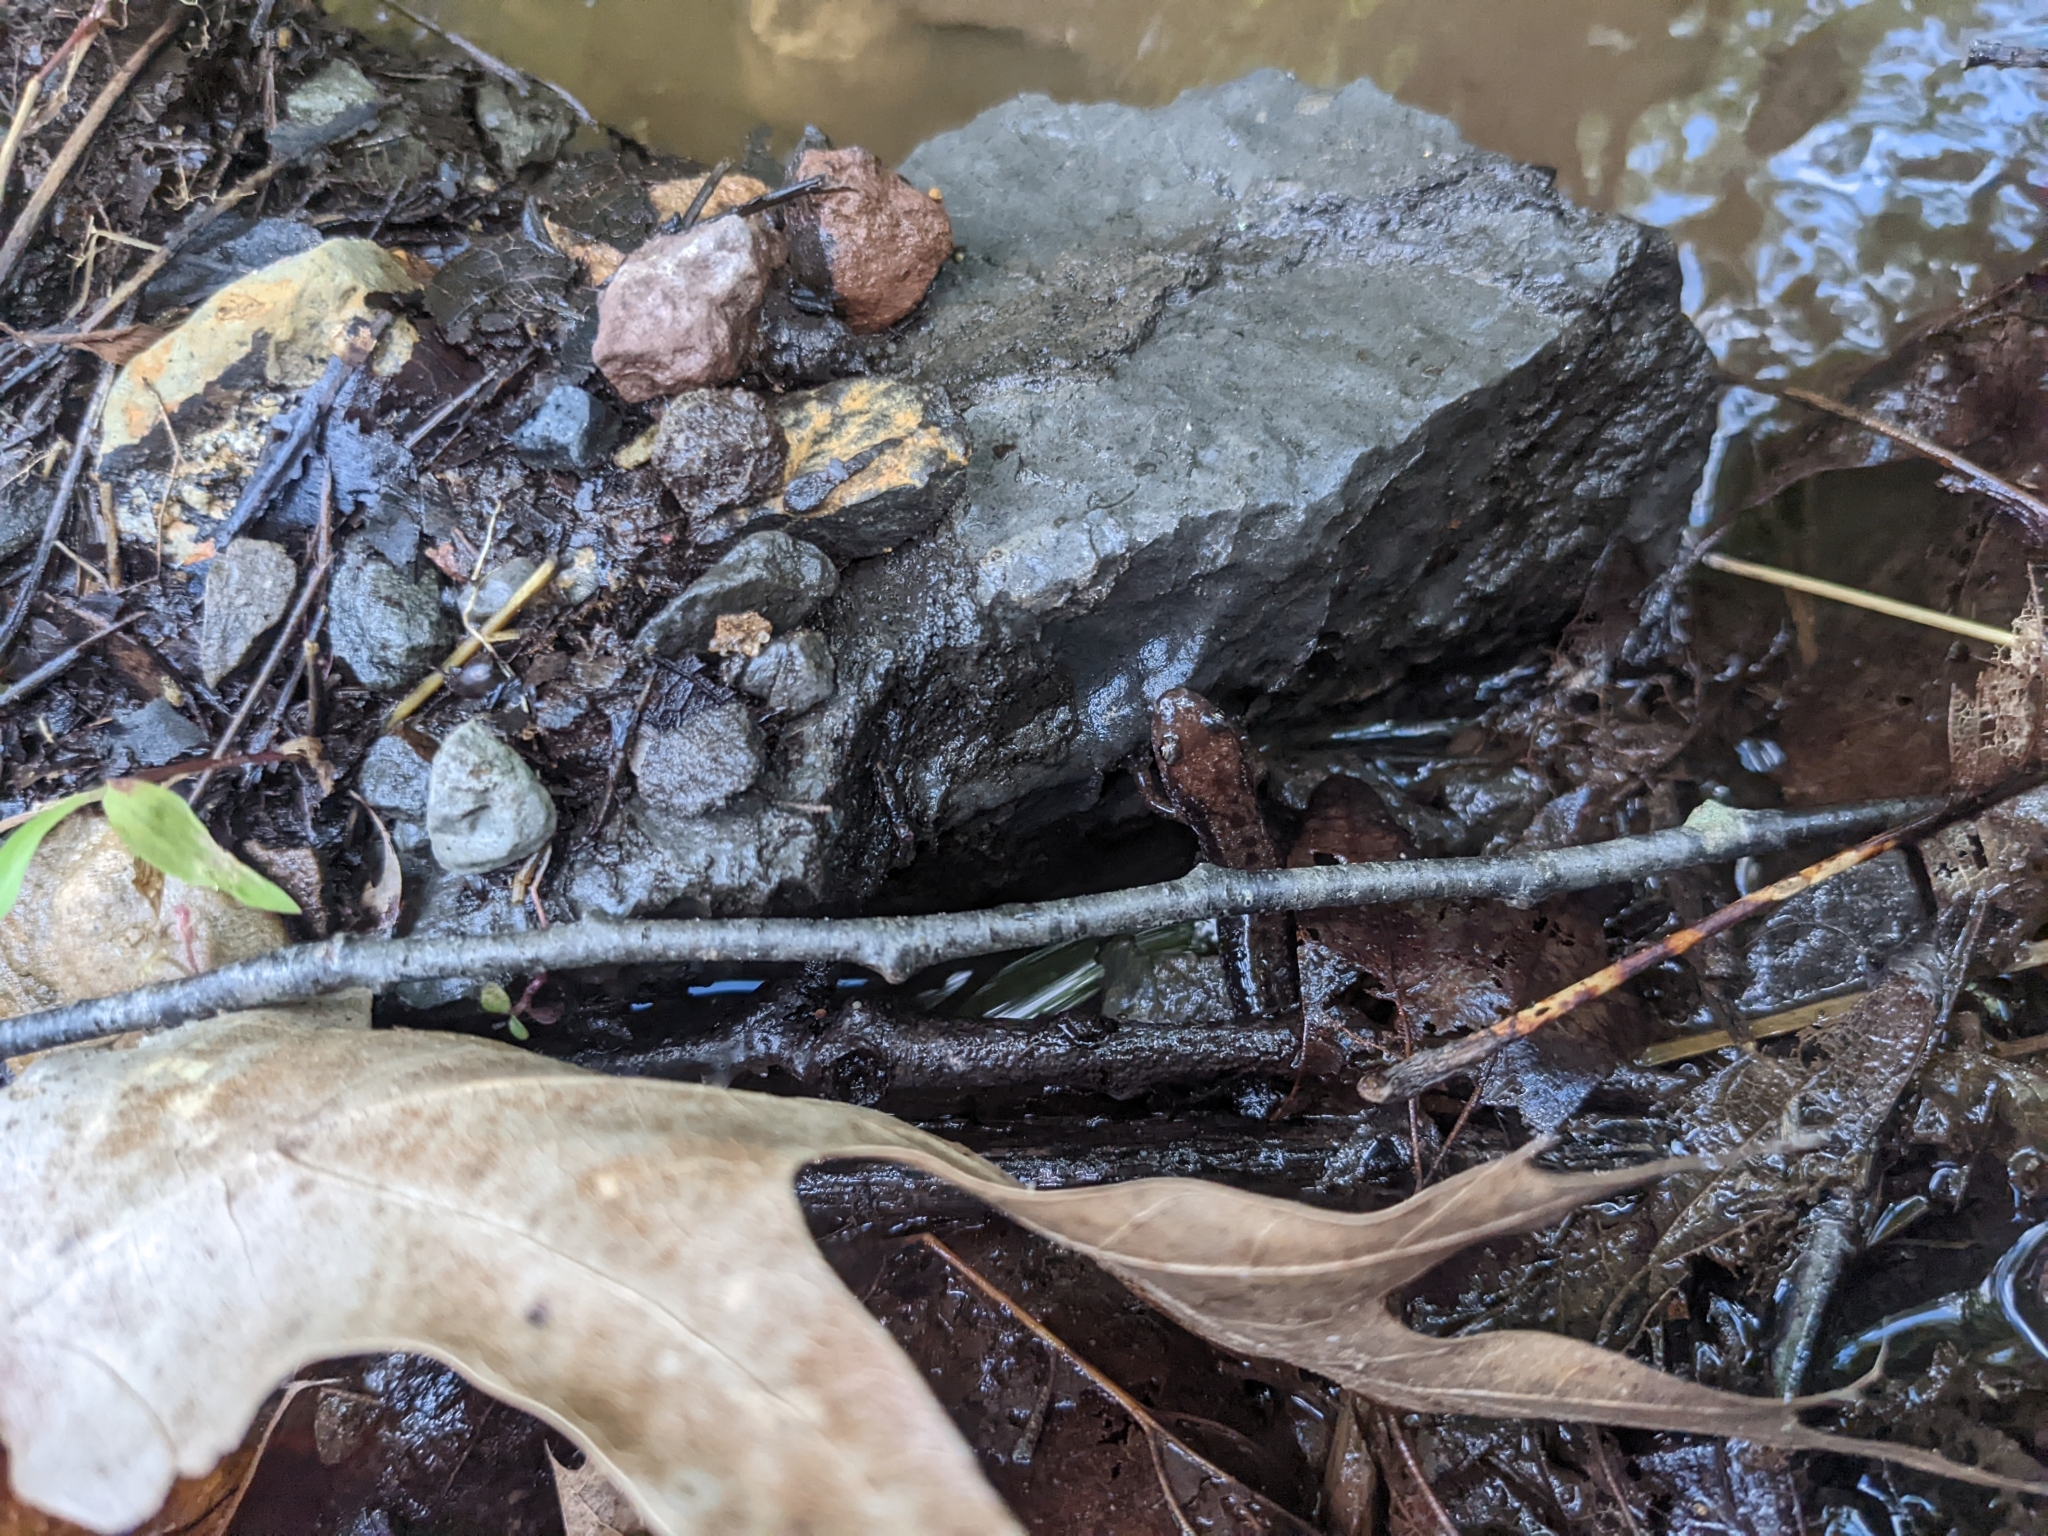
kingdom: Animalia
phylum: Chordata
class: Amphibia
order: Caudata
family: Plethodontidae
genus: Desmognathus
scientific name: Desmognathus ochrophaeus
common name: Allegheny mountain dusky salamander
